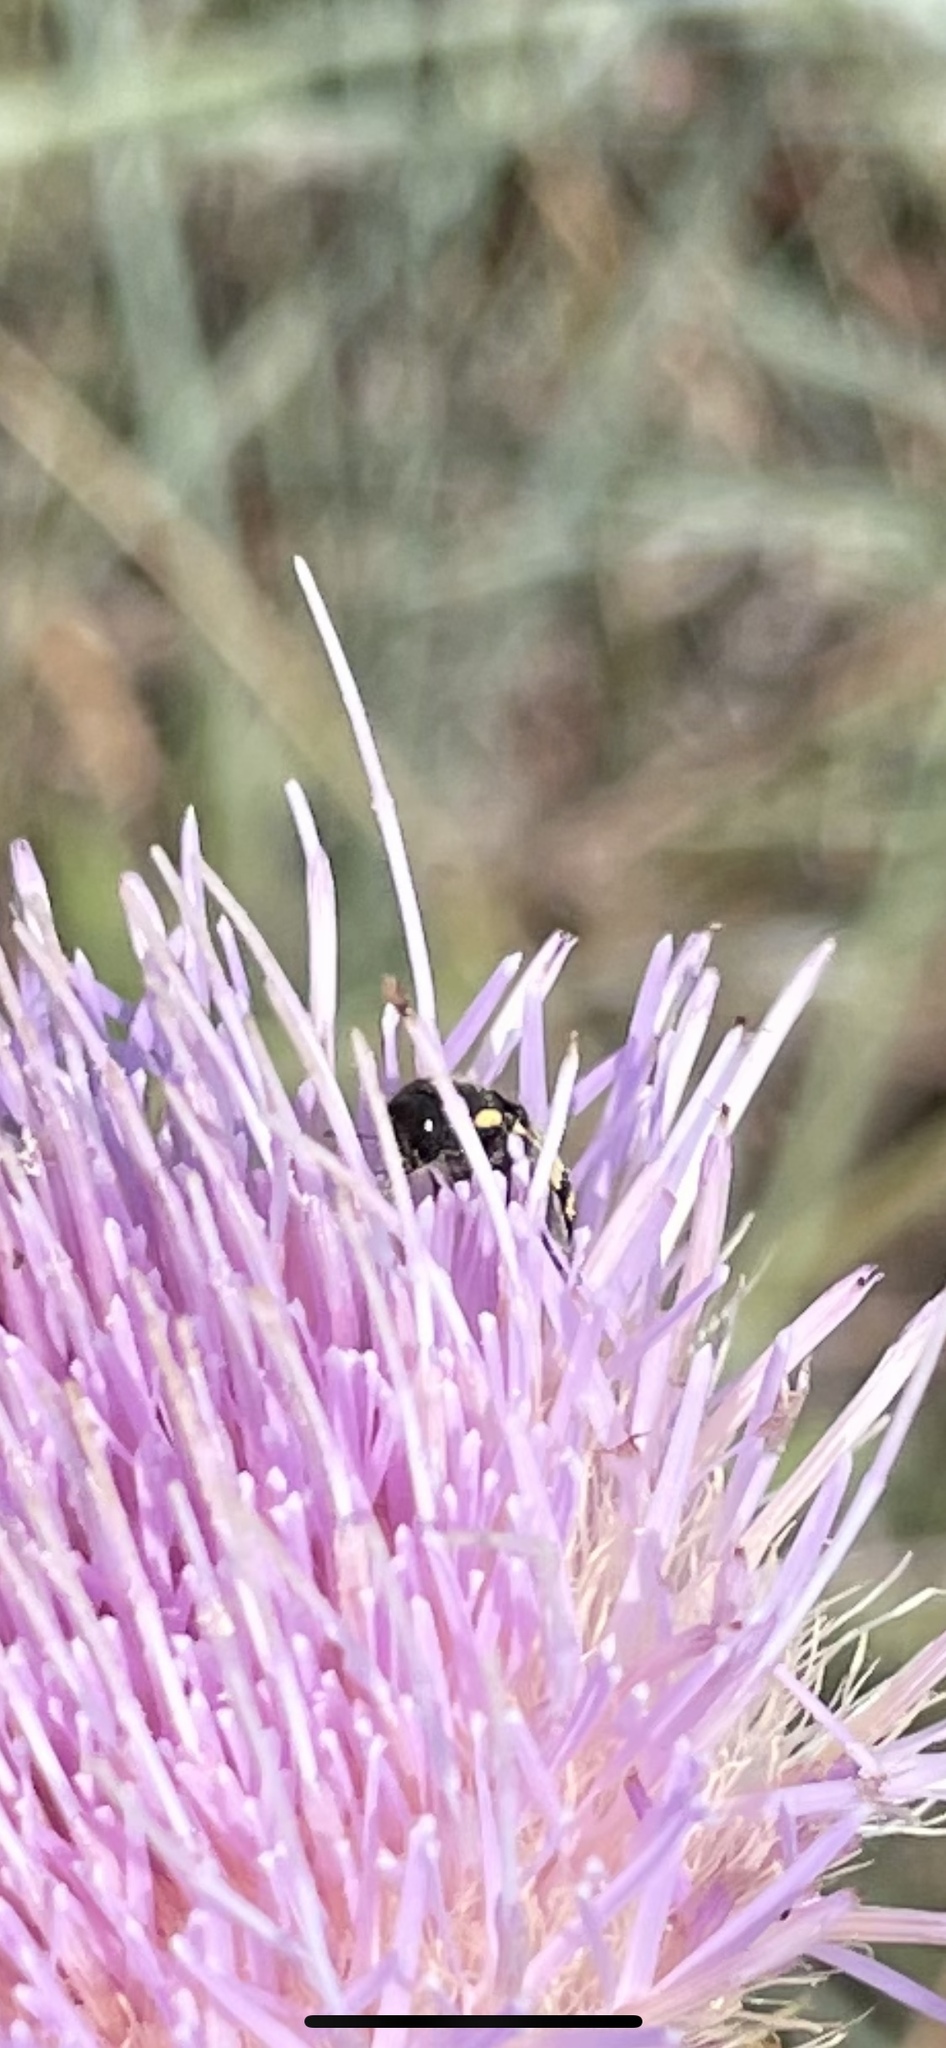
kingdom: Animalia
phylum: Arthropoda
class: Insecta
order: Coleoptera
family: Buprestidae
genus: Acmaeodera
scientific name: Acmaeodera mixta
